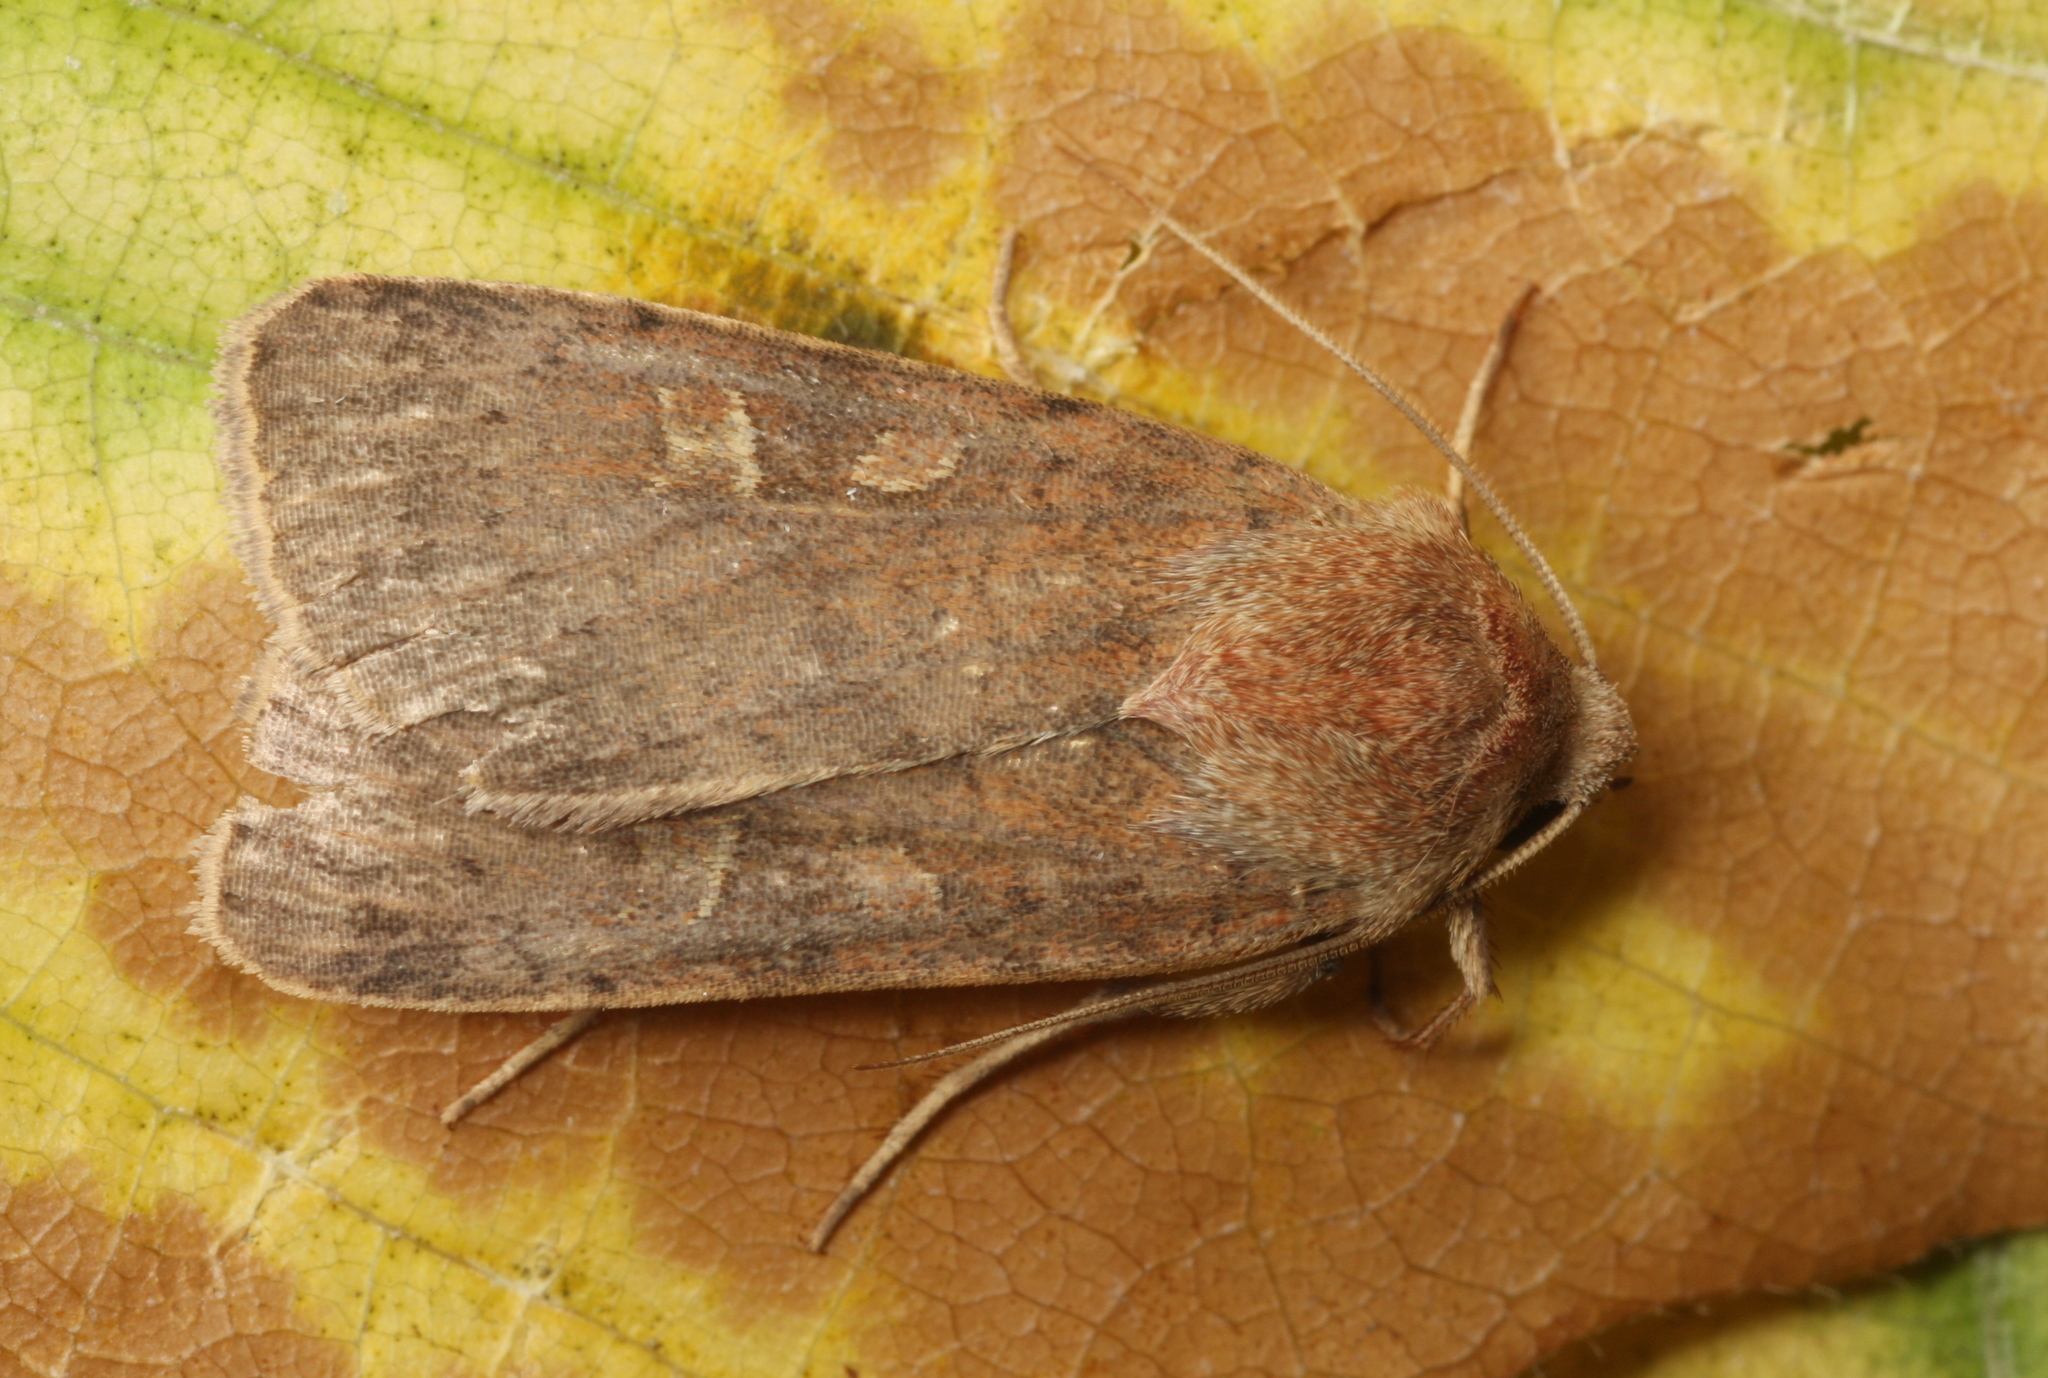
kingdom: Animalia
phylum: Arthropoda
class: Insecta
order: Lepidoptera
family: Noctuidae
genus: Xestia
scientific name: Xestia xanthographa
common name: Square-spot rustic
